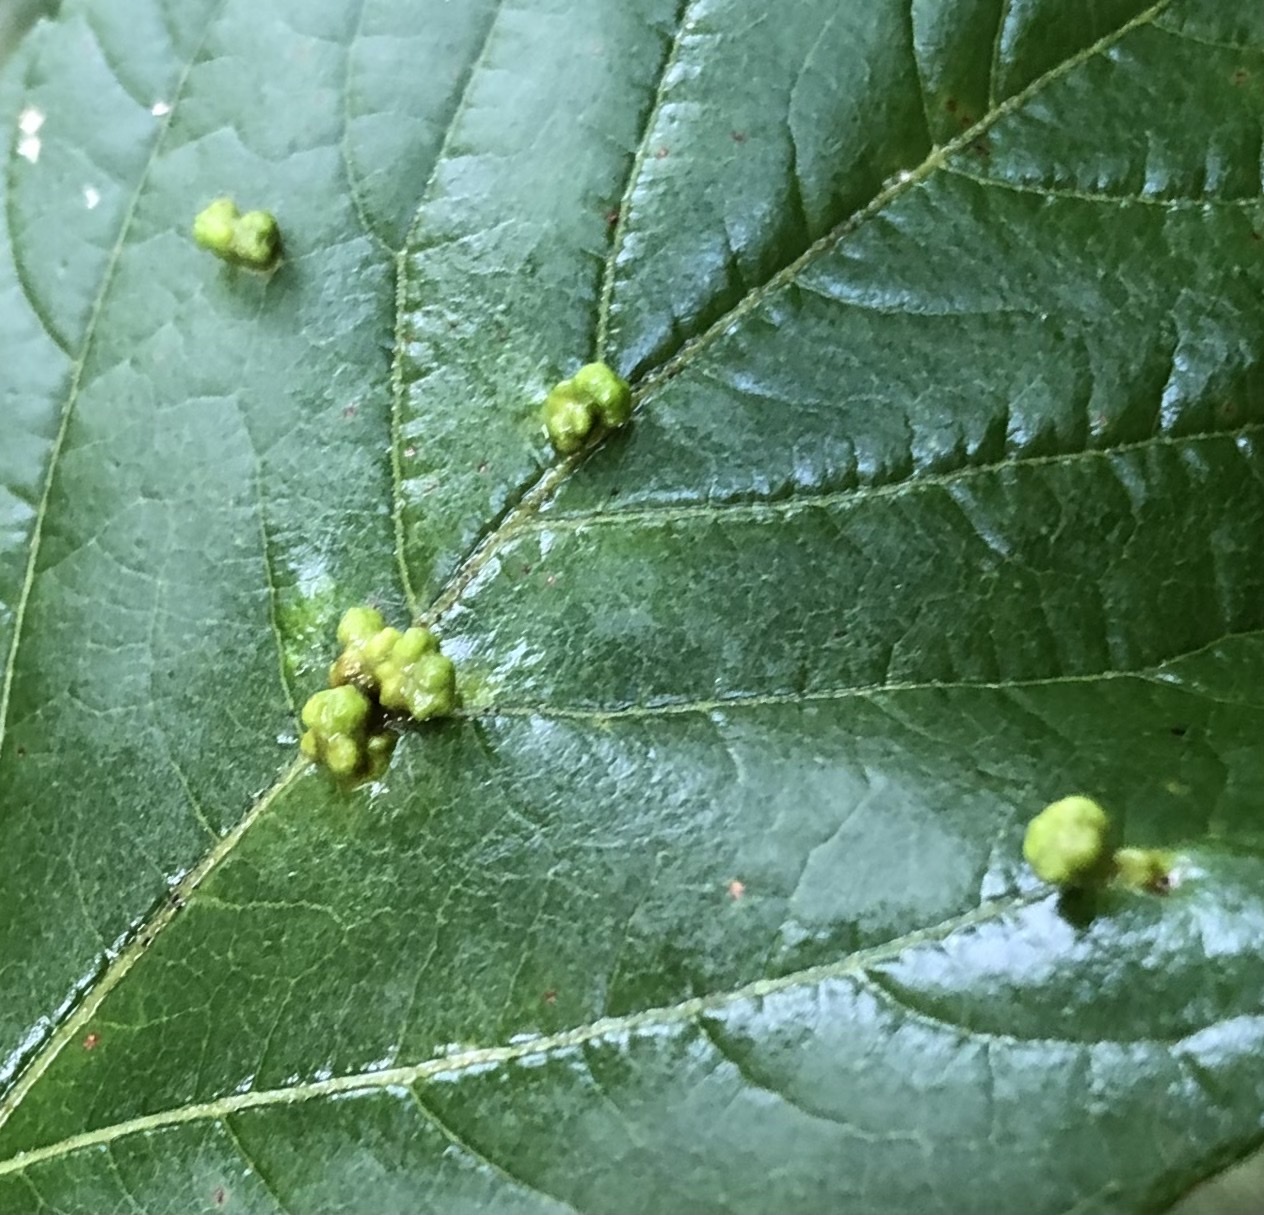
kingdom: Animalia
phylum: Arthropoda
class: Arachnida
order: Trombidiformes
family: Eriophyidae
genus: Aceria
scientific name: Aceria
